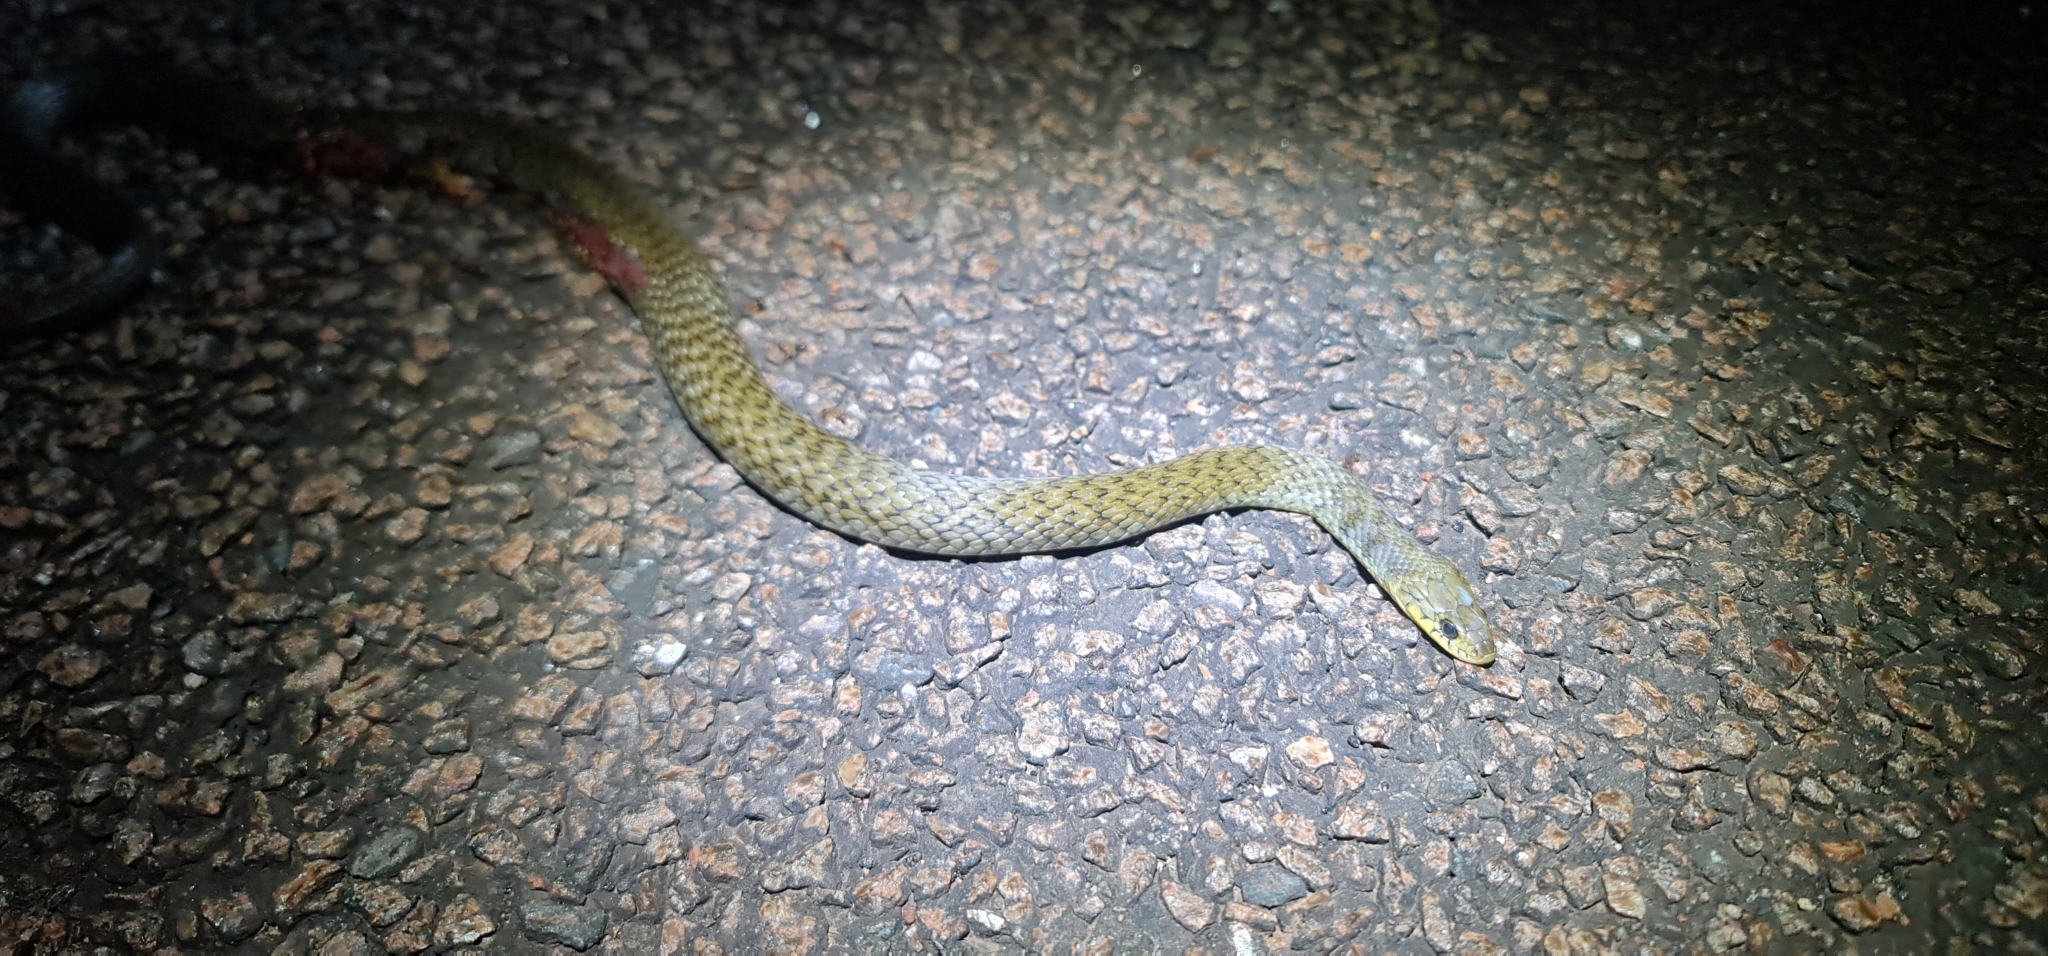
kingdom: Animalia
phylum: Chordata
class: Squamata
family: Colubridae
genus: Tropidonophis
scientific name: Tropidonophis mairii
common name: Common keelback
